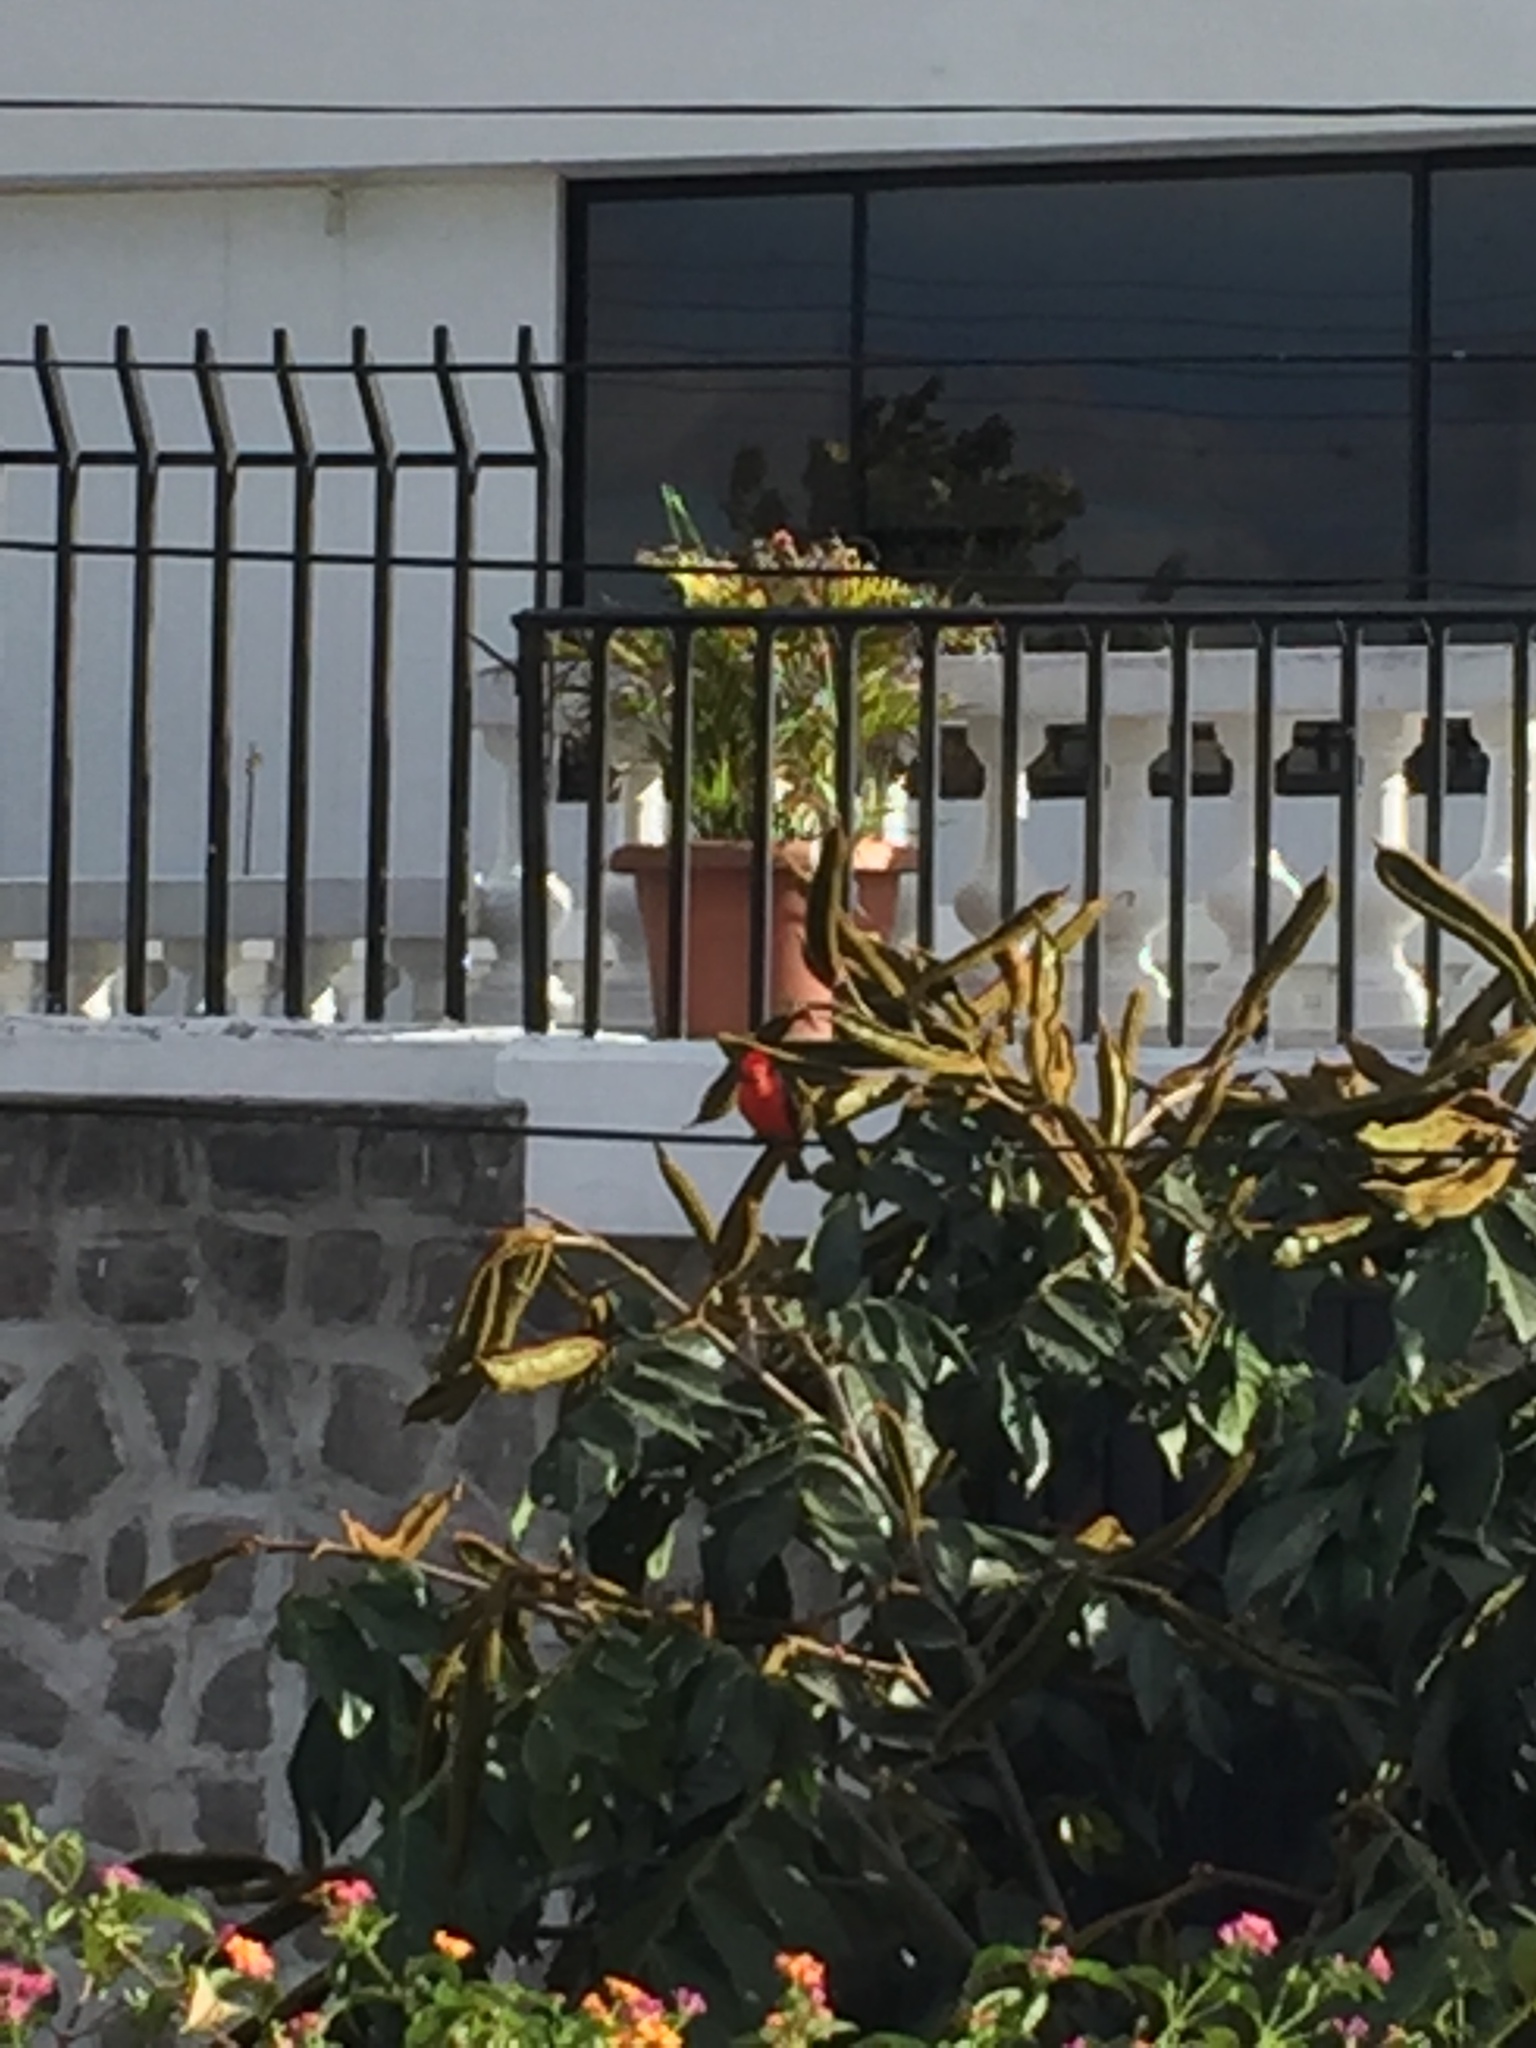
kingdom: Animalia
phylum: Chordata
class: Aves
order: Passeriformes
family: Tyrannidae
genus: Pyrocephalus
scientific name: Pyrocephalus rubinus
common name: Vermilion flycatcher
